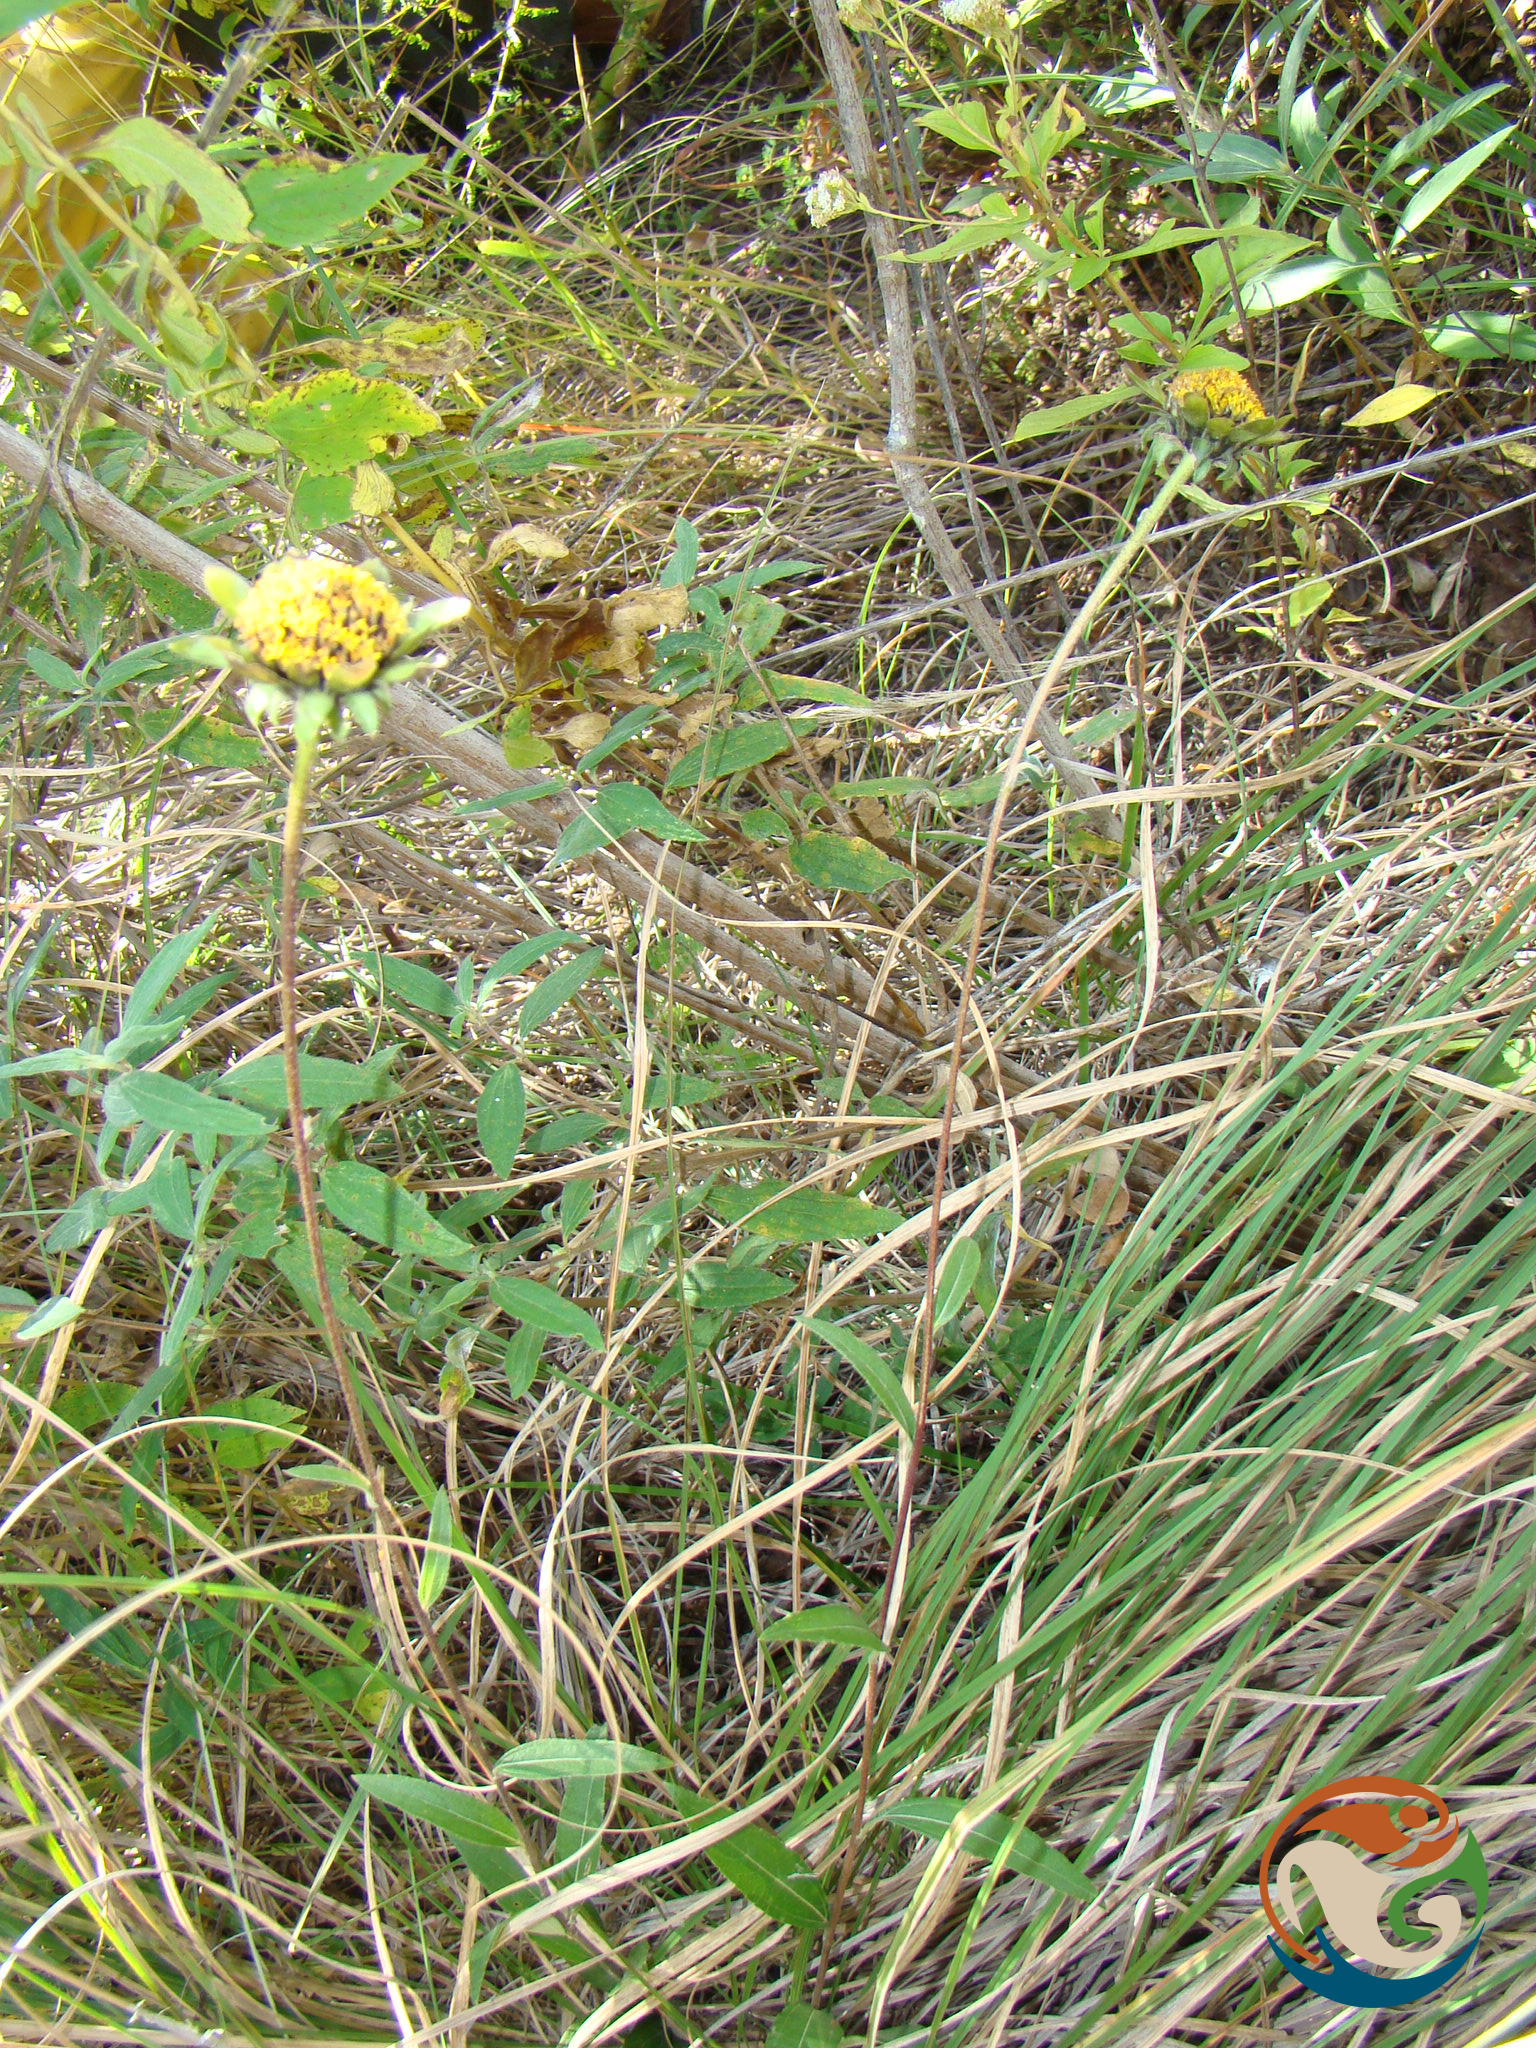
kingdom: Plantae
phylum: Tracheophyta
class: Magnoliopsida
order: Asterales
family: Asteraceae
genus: Aldama
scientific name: Aldama excelsa
